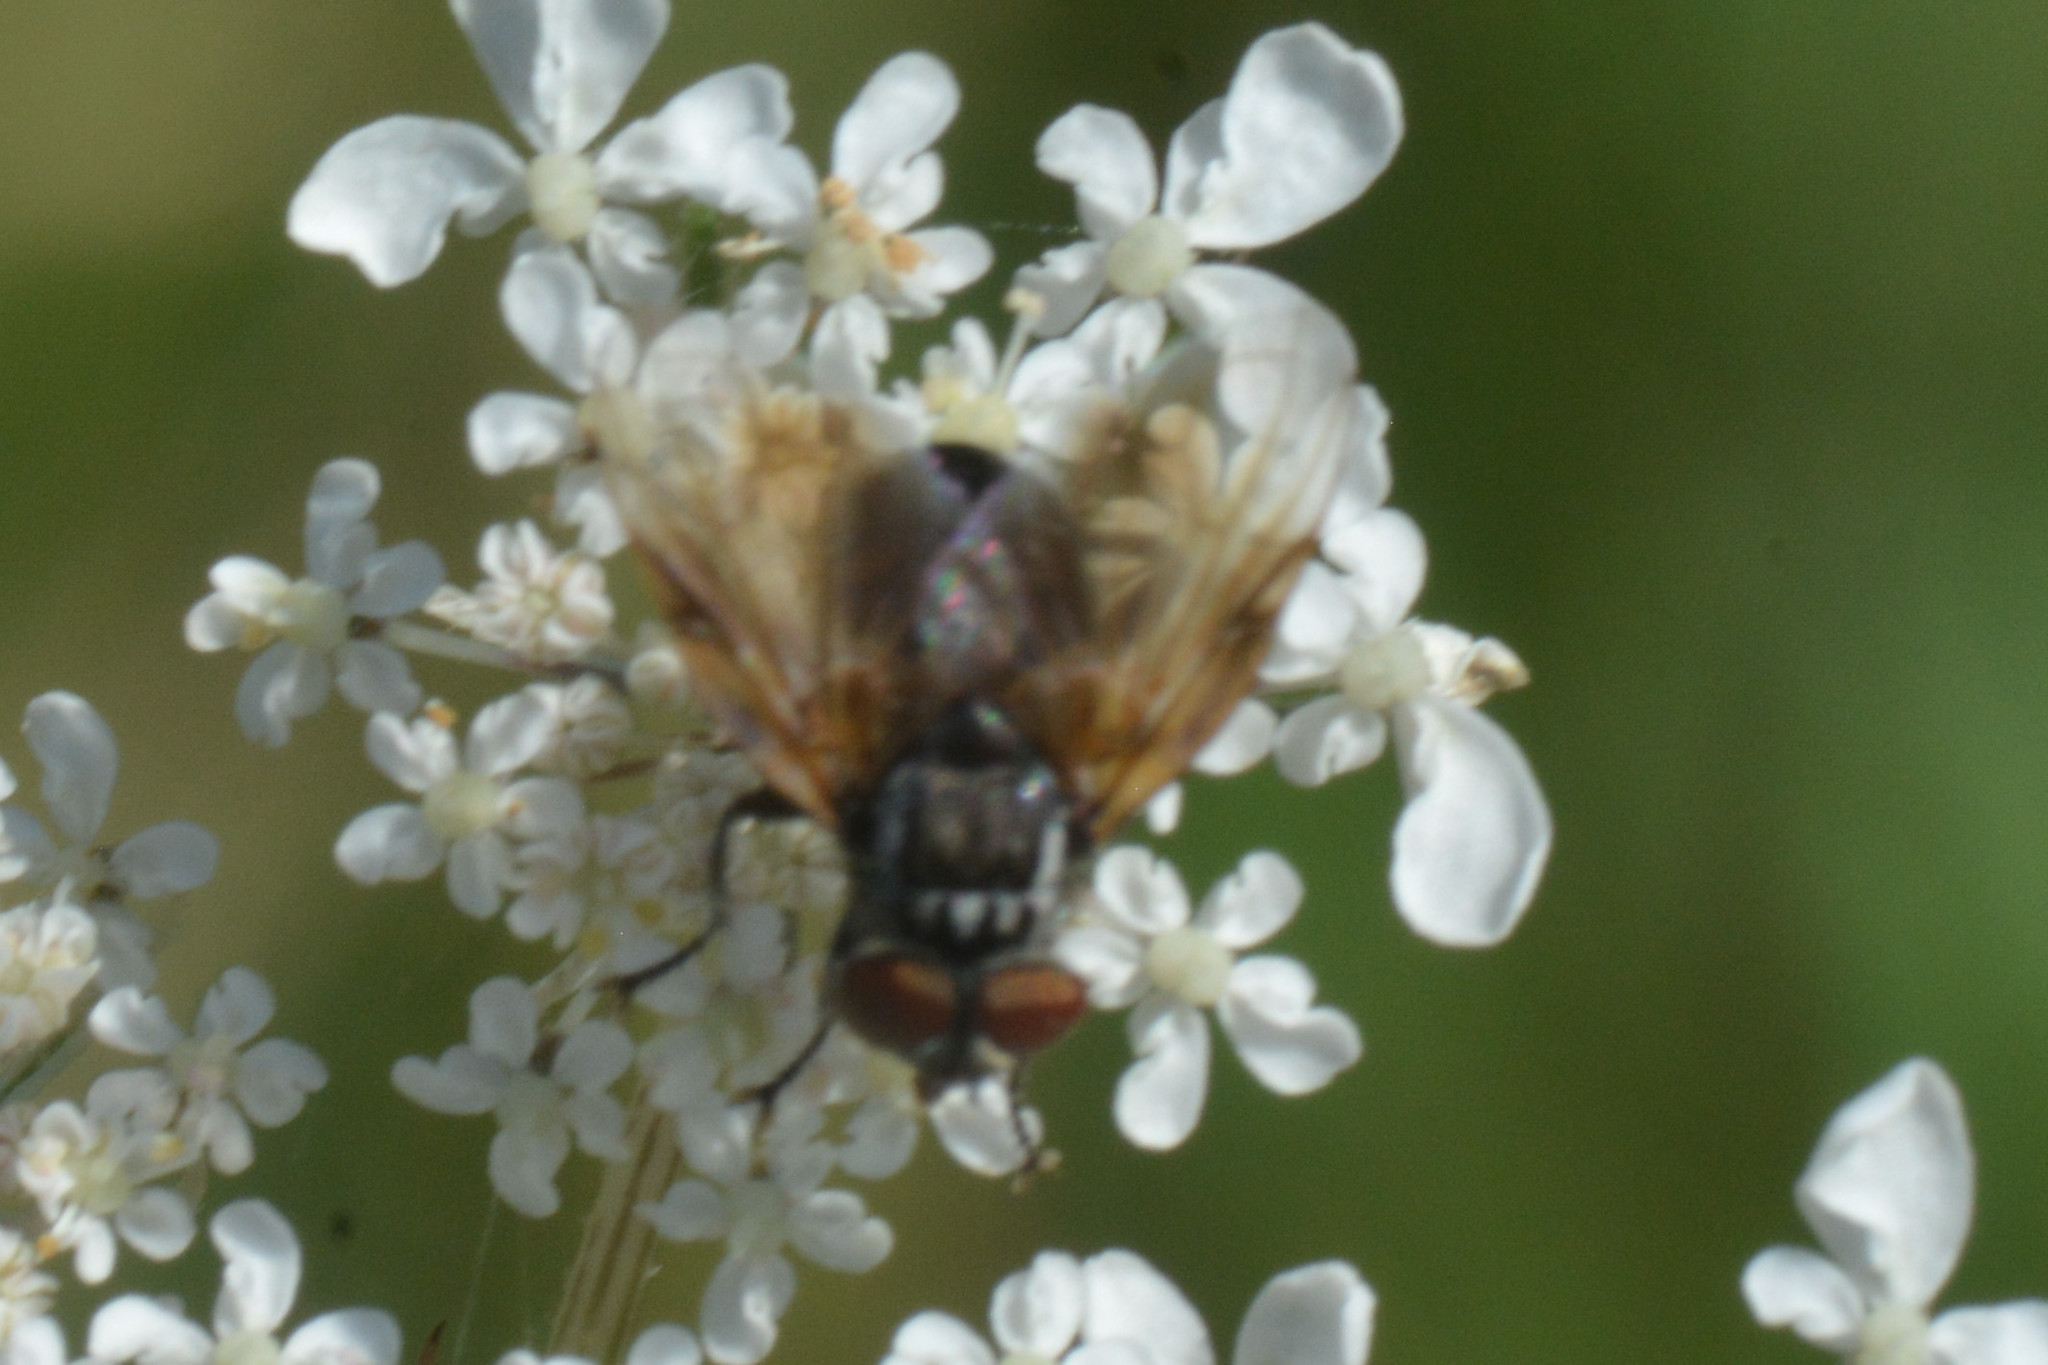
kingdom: Animalia
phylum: Arthropoda
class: Insecta
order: Diptera
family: Tachinidae
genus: Phasia
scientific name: Phasia obesa
